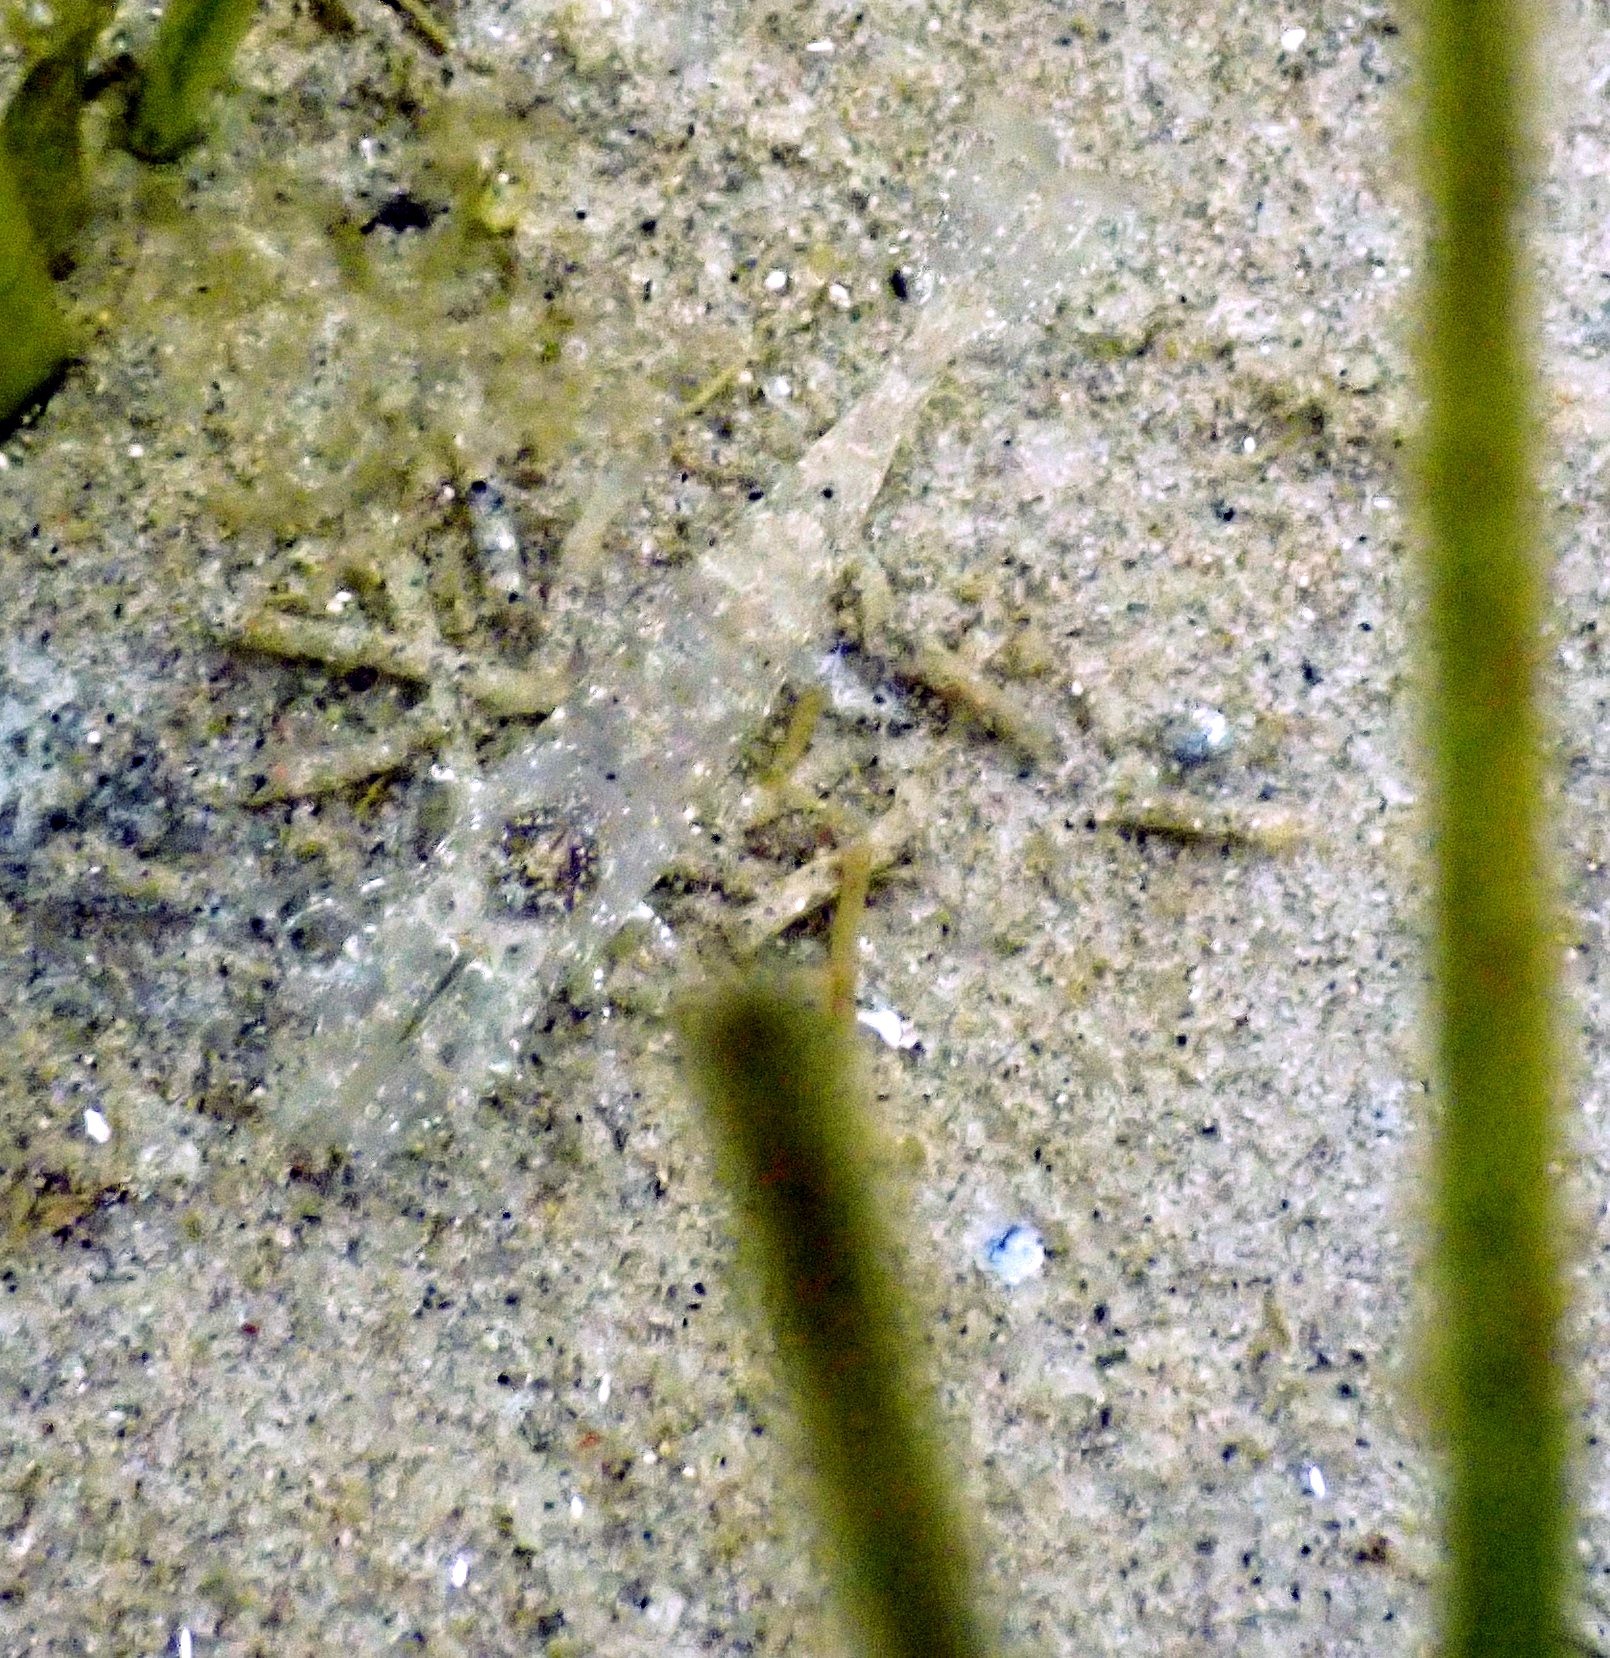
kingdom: Animalia
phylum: Arthropoda
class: Malacostraca
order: Decapoda
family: Crangonidae
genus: Crangon
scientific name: Crangon crangon
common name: Brown shrimp
